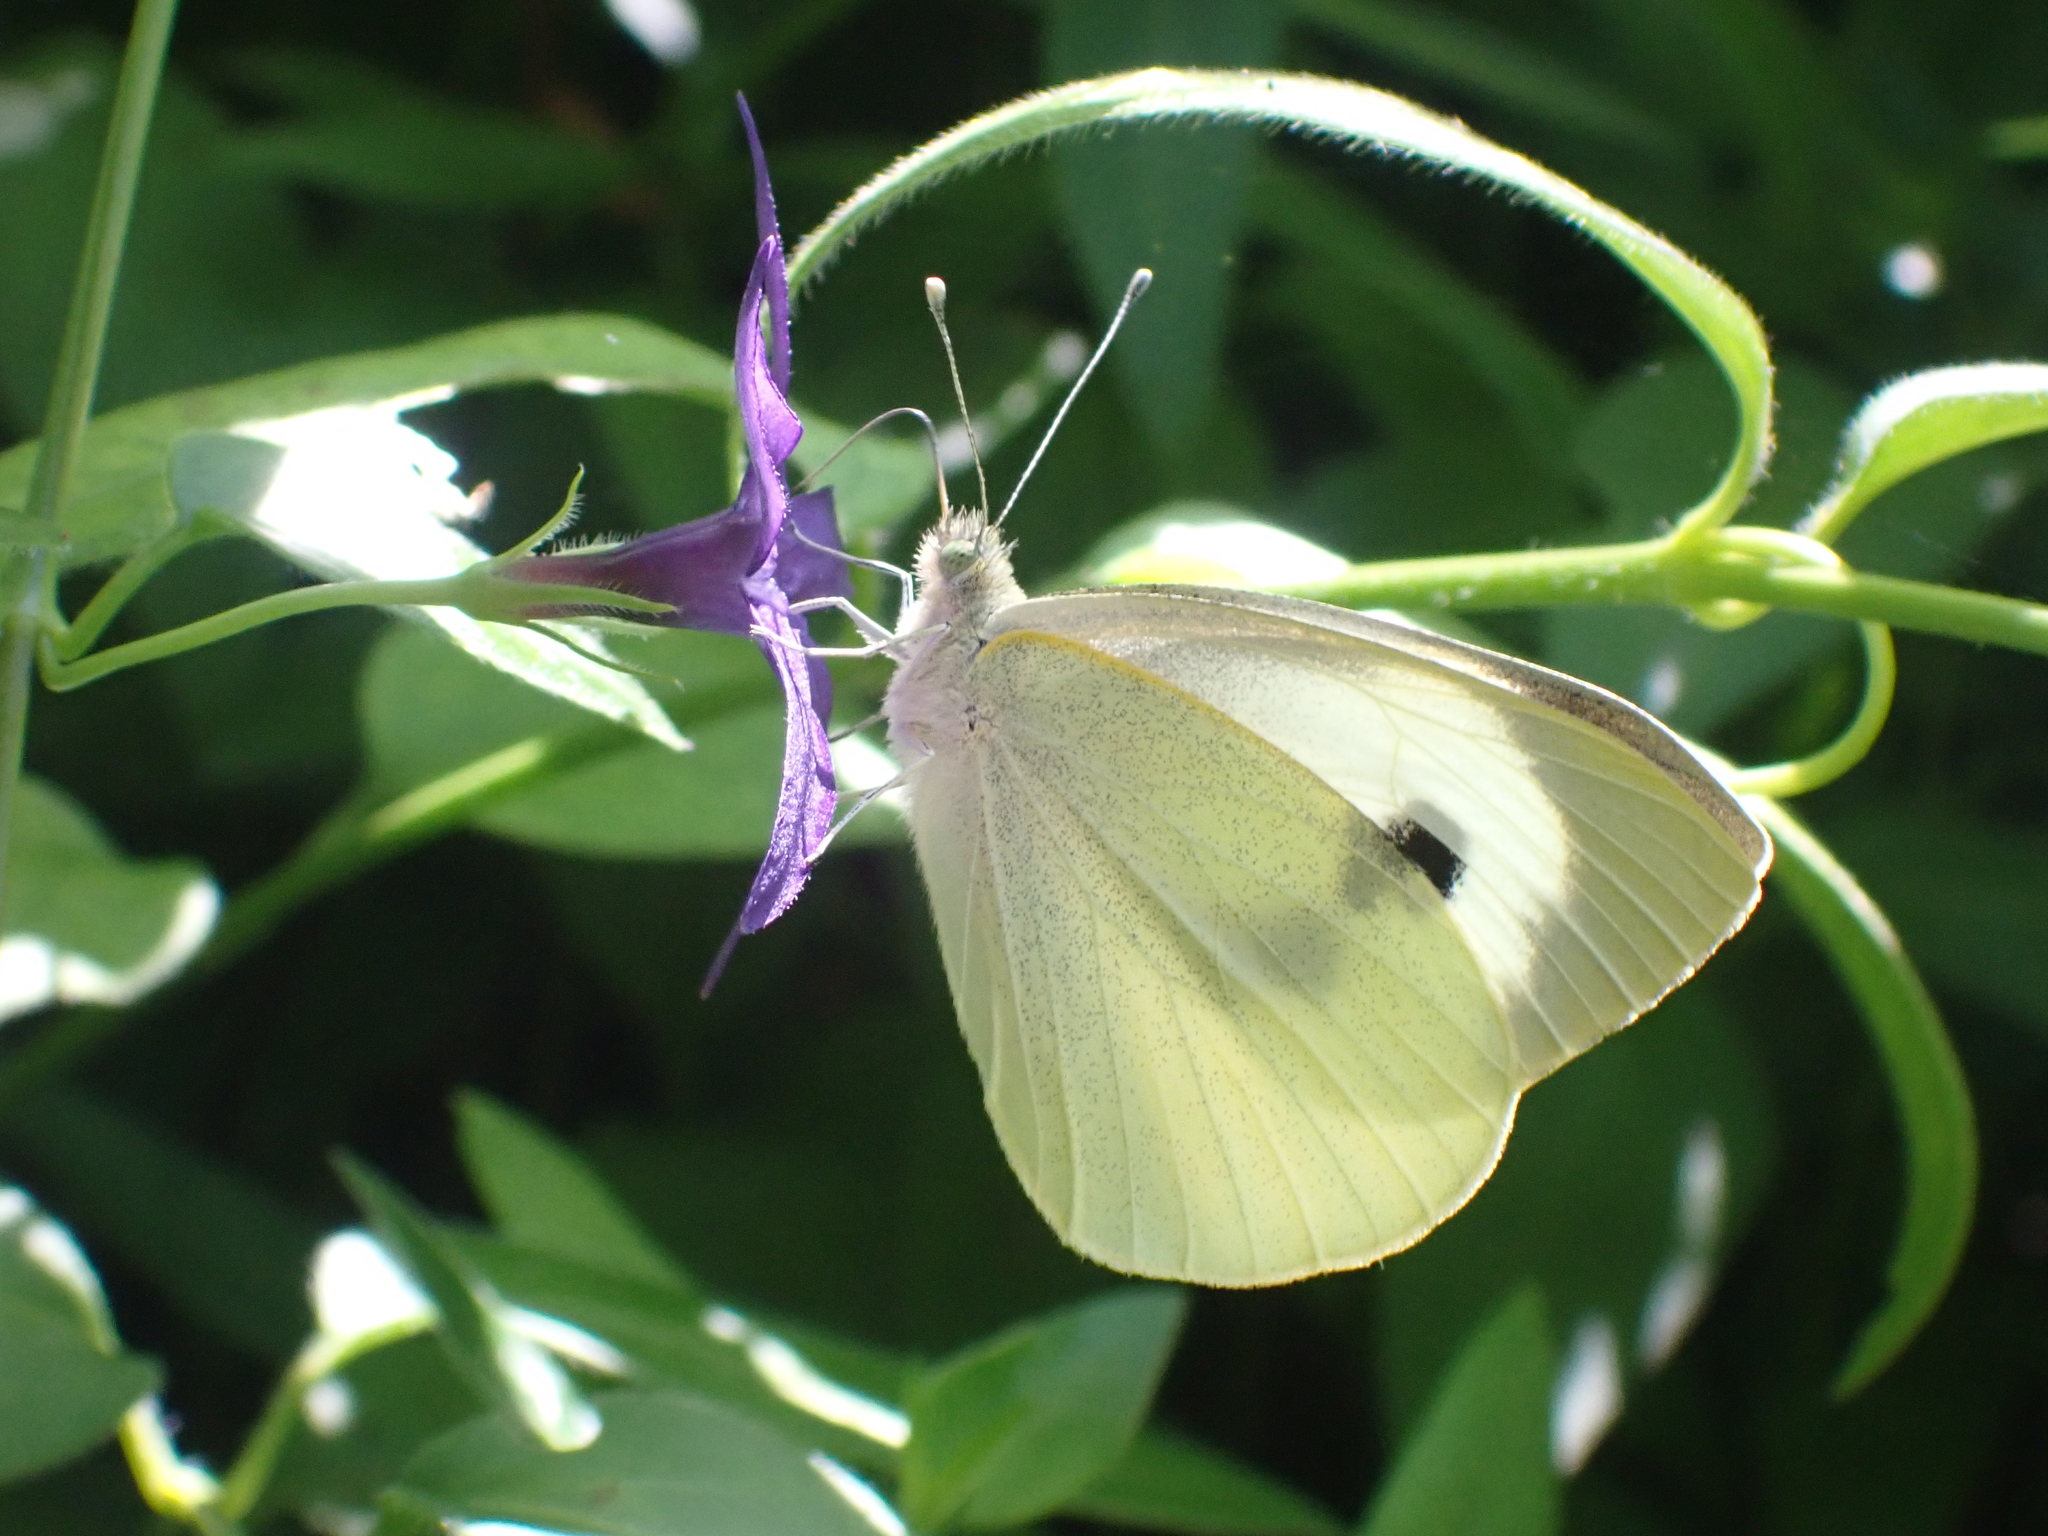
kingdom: Animalia
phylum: Arthropoda
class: Insecta
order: Lepidoptera
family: Pieridae
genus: Pieris
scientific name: Pieris brassicae
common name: Large white
